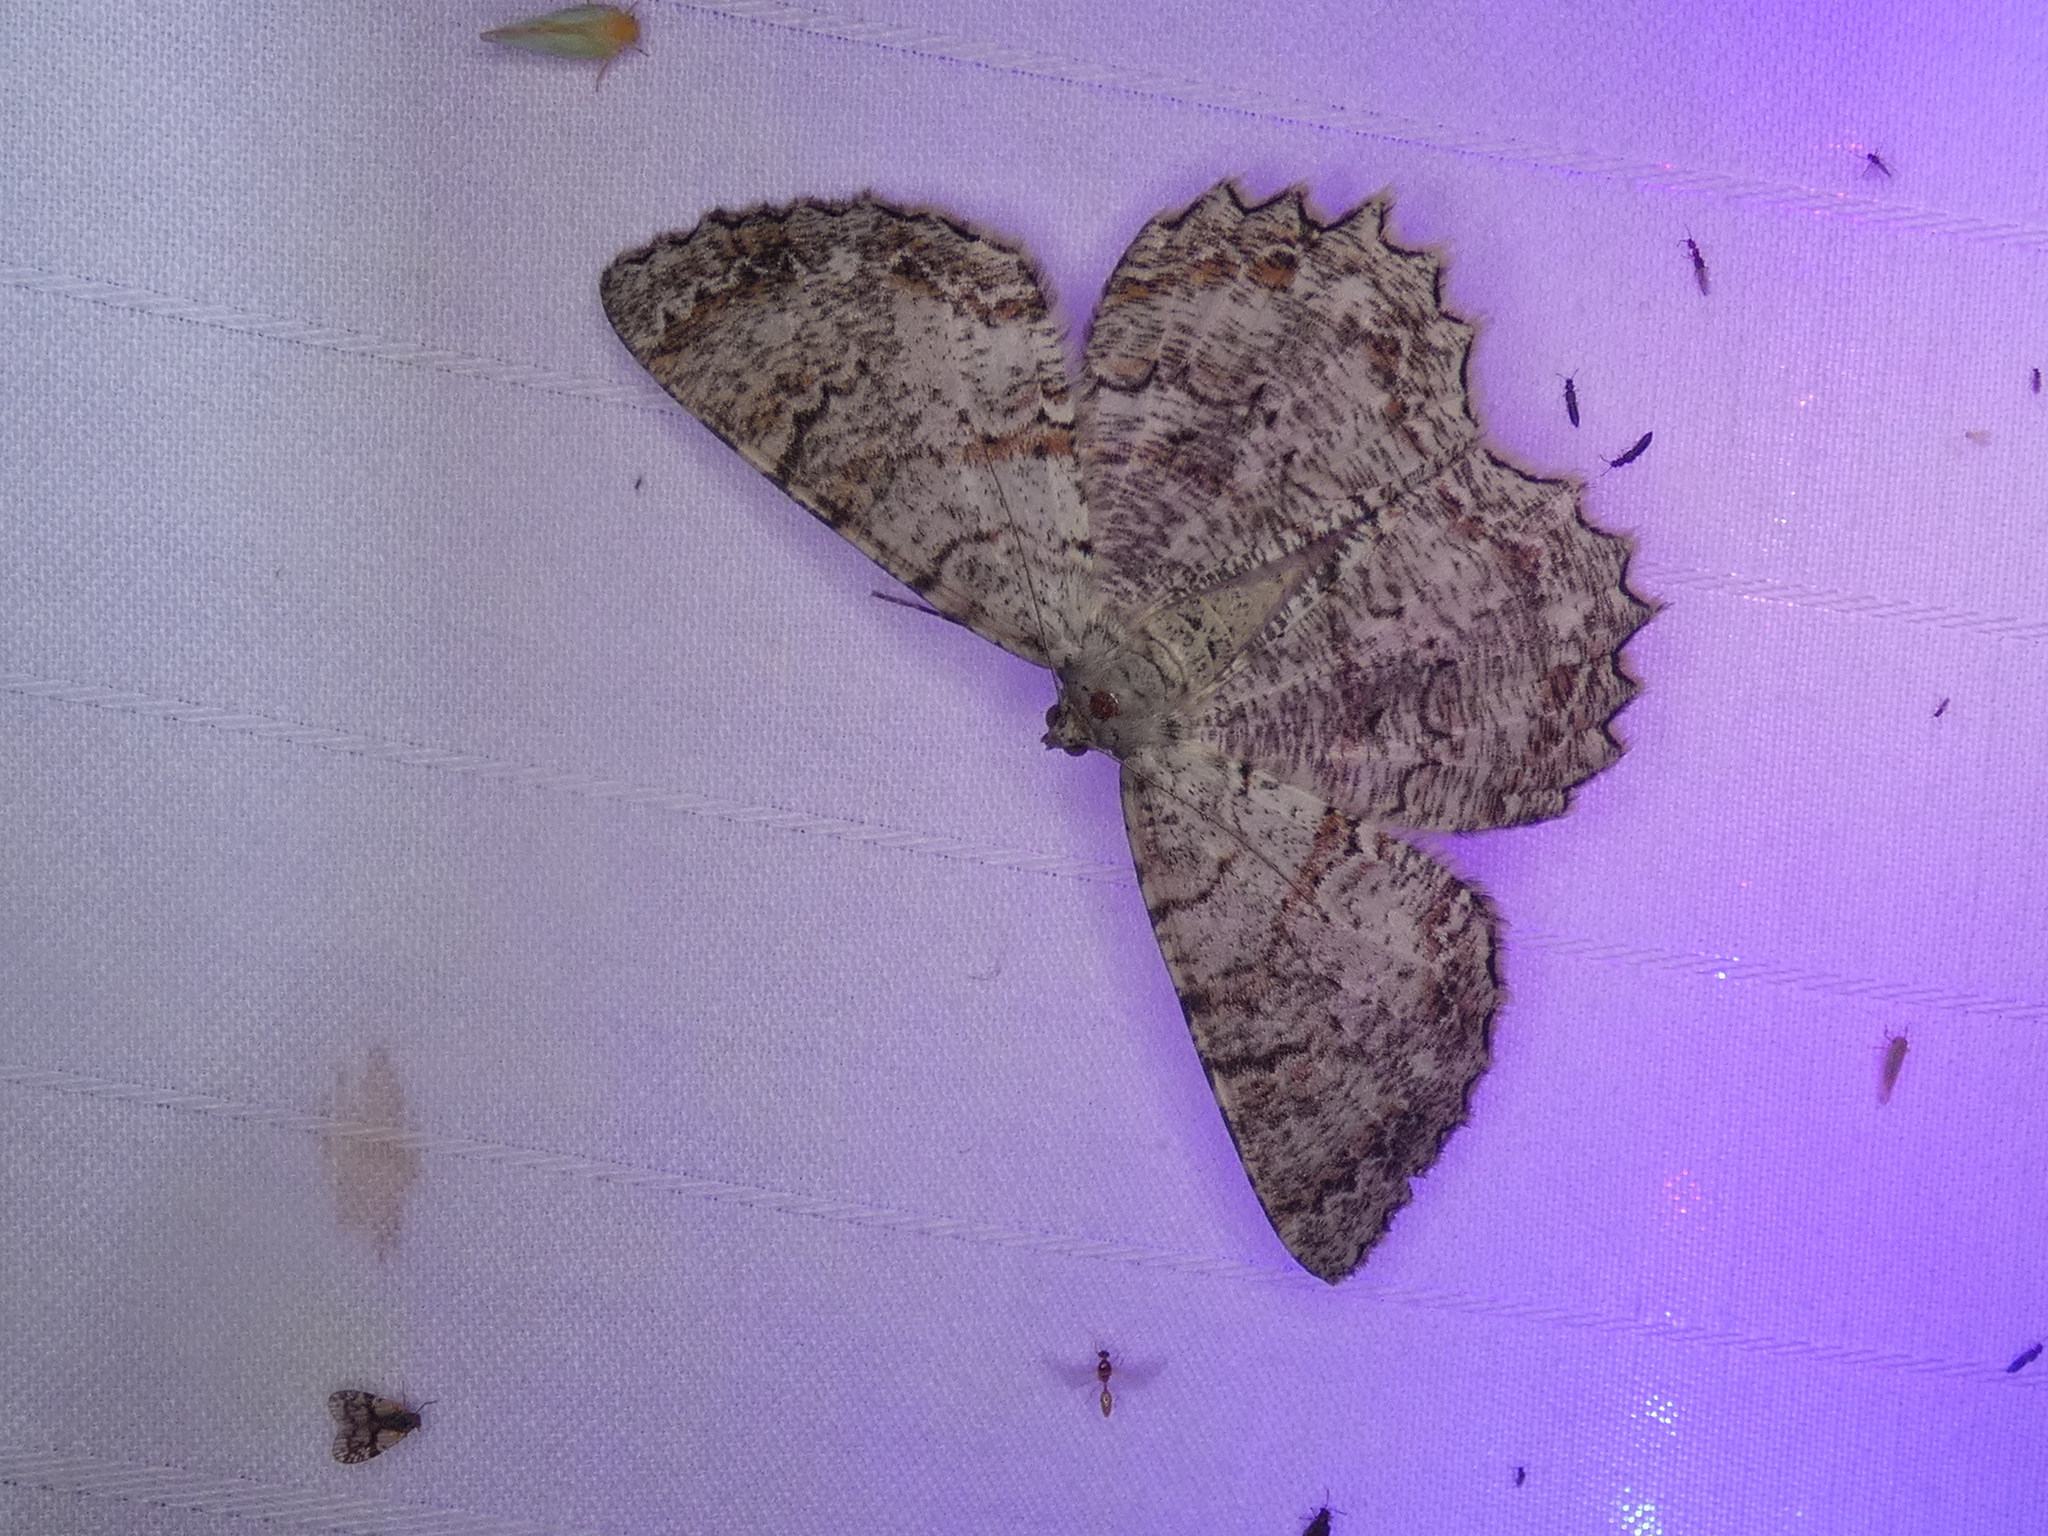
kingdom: Animalia
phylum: Arthropoda
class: Insecta
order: Lepidoptera
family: Geometridae
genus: Epimecis
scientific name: Epimecis hortaria
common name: Tulip-tree beauty
